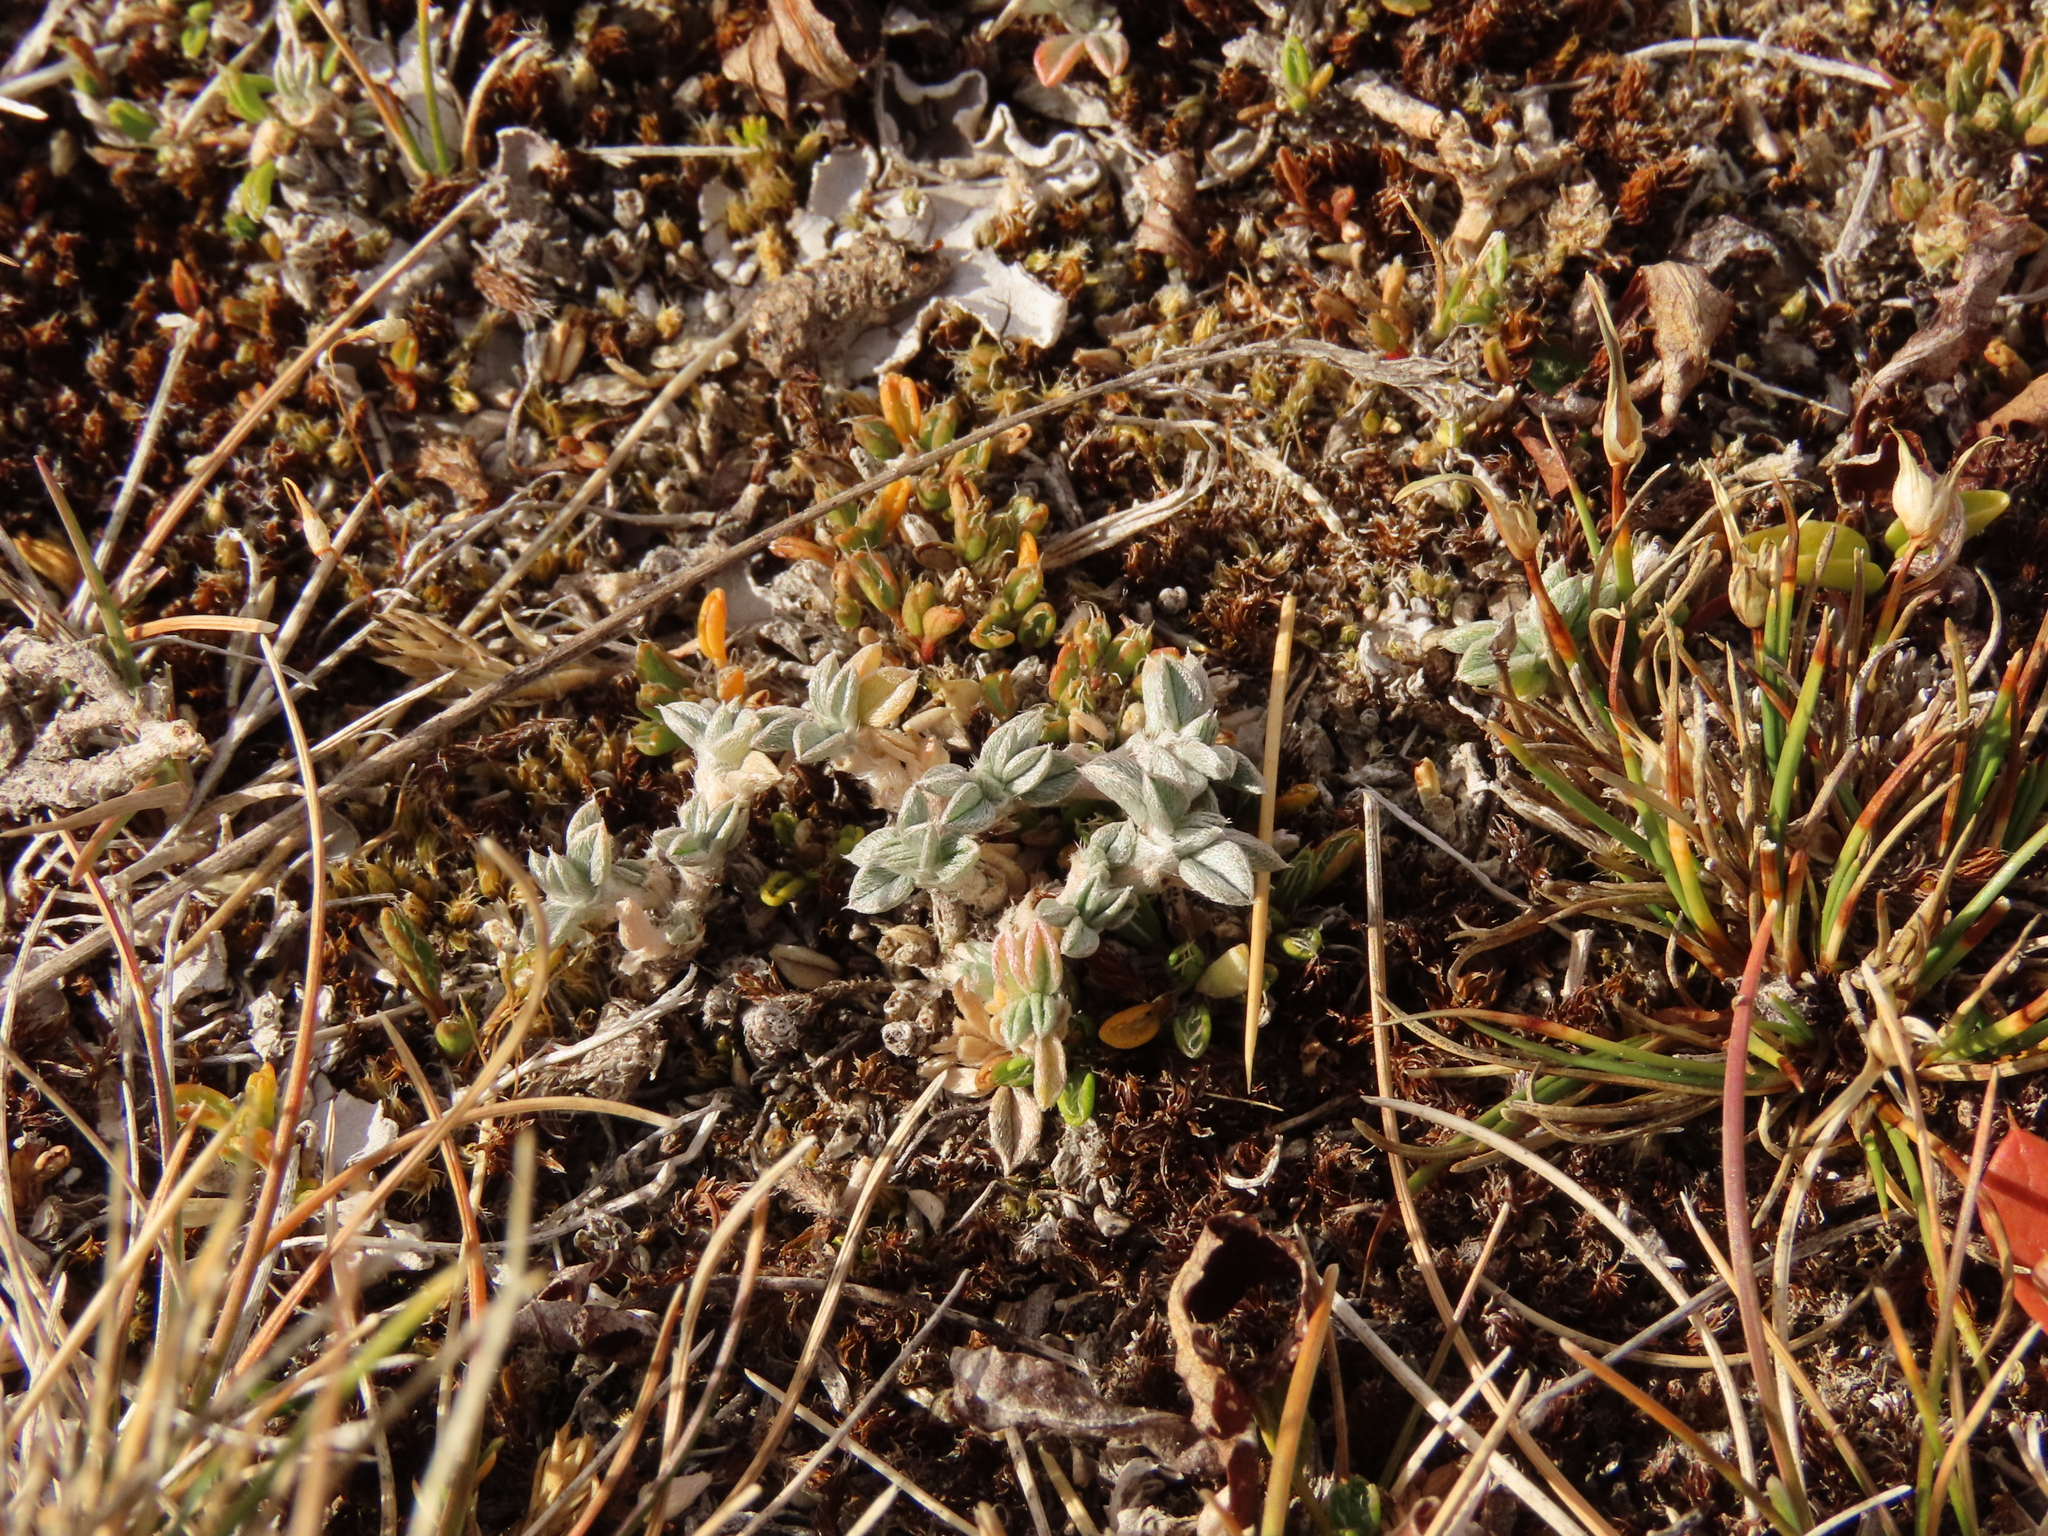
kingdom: Plantae
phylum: Tracheophyta
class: Magnoliopsida
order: Fabales
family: Fabaceae
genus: Adesmia
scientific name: Adesmia lotoides
